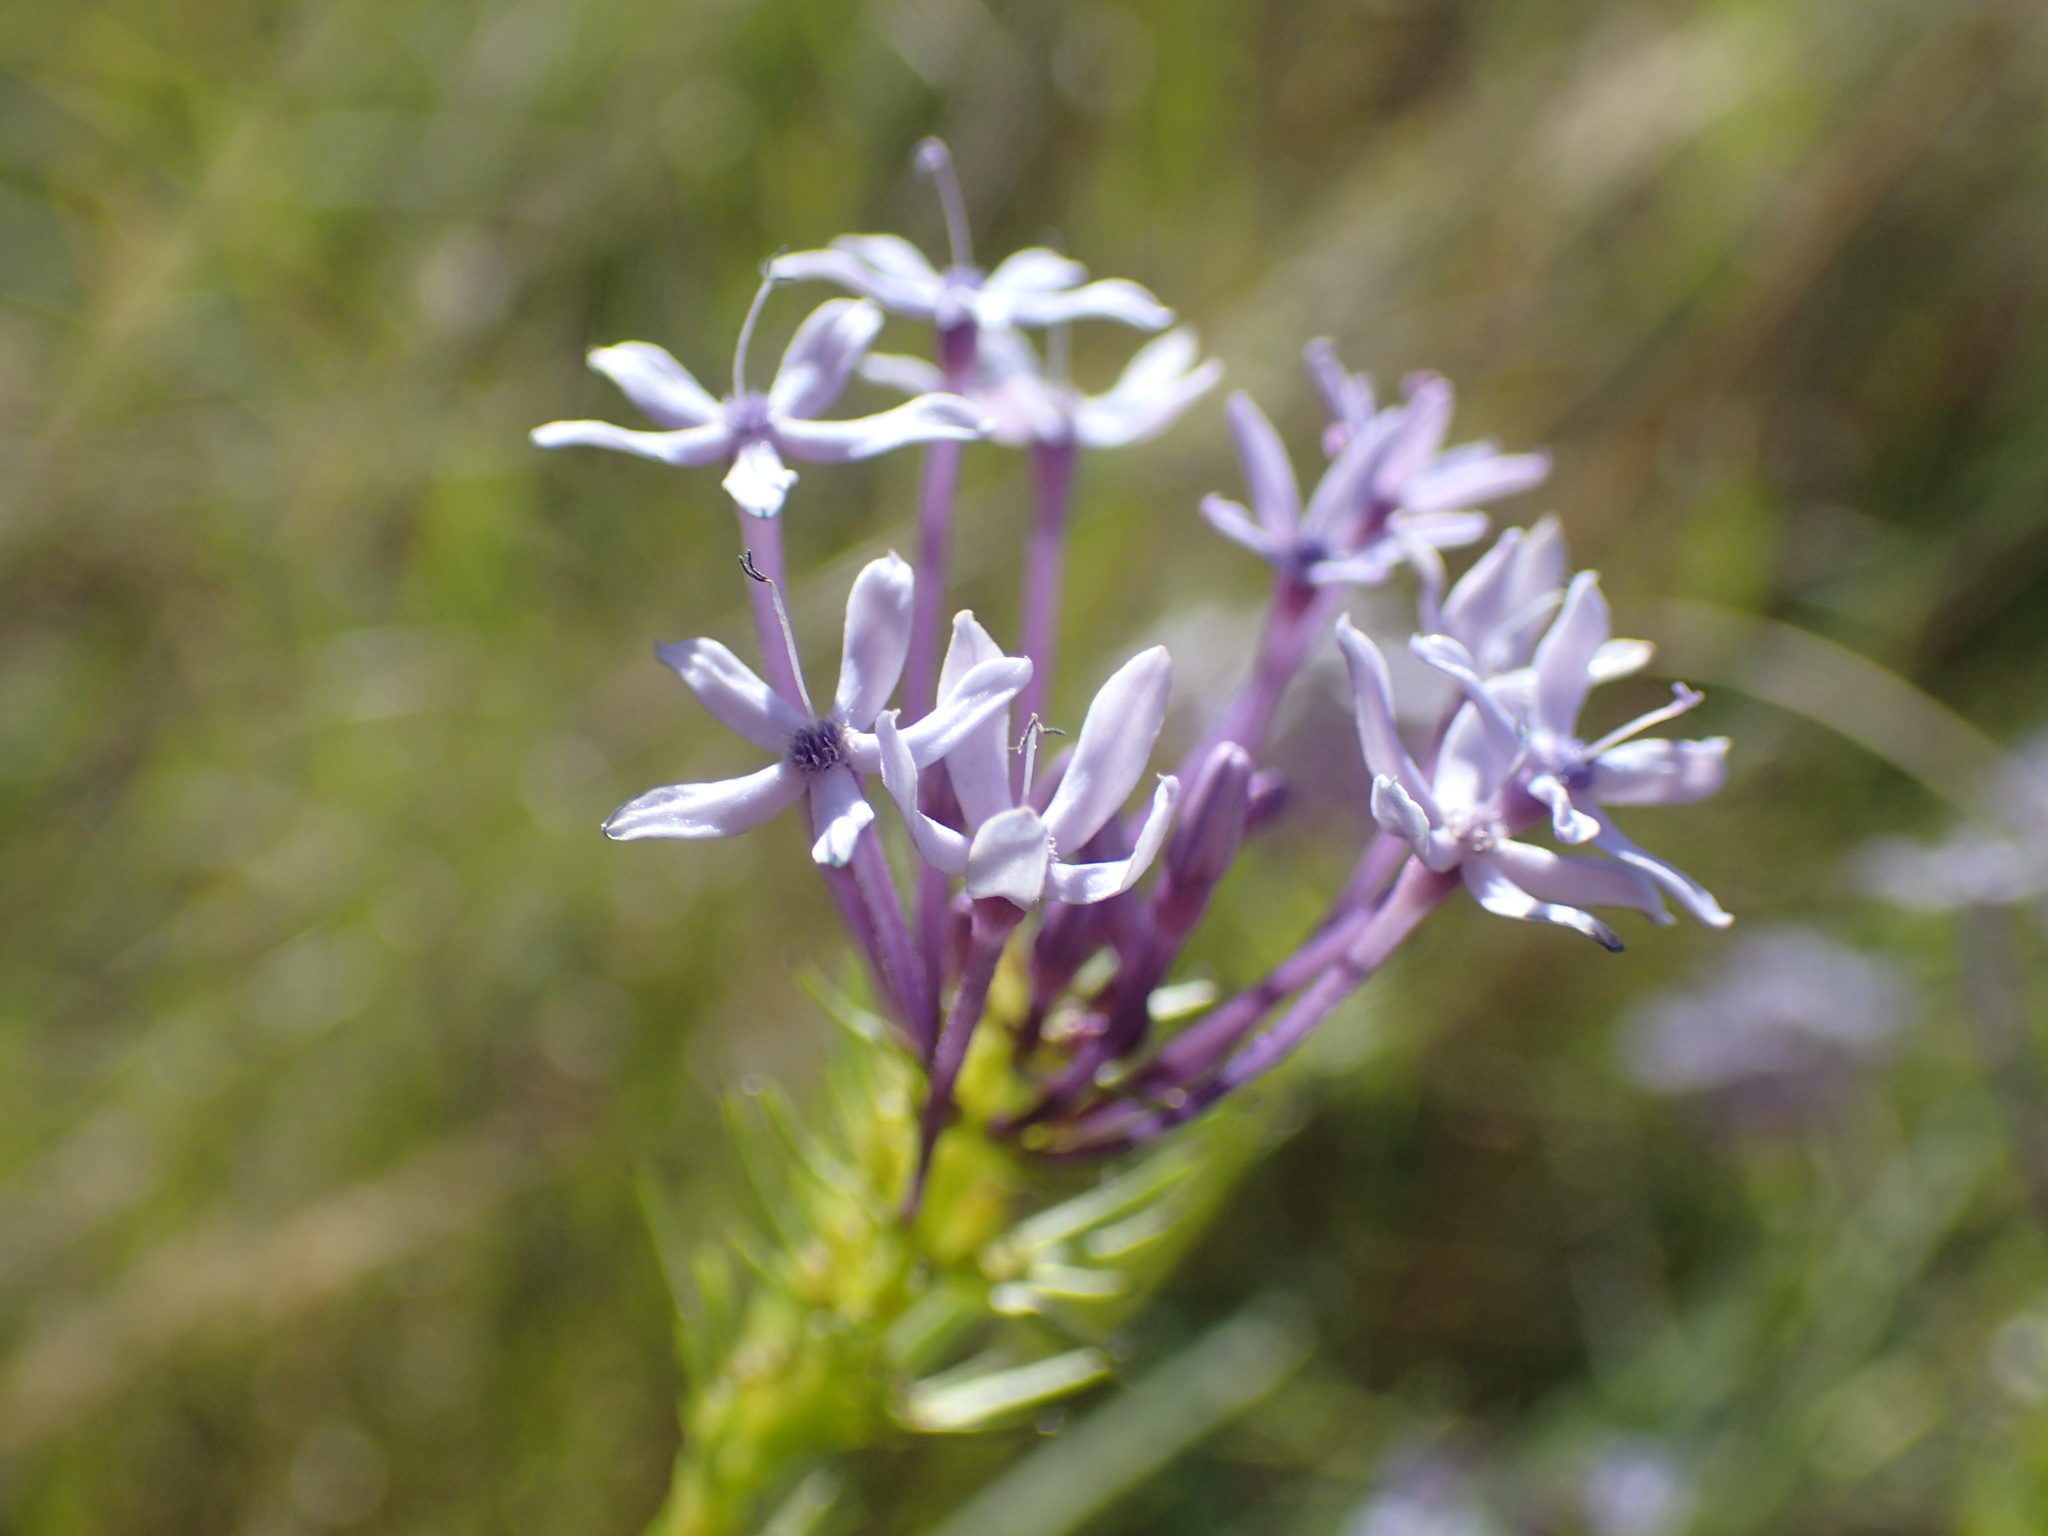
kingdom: Plantae
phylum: Tracheophyta
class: Magnoliopsida
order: Gentianales
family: Rubiaceae
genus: Pentanisia
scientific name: Pentanisia angustifolia
